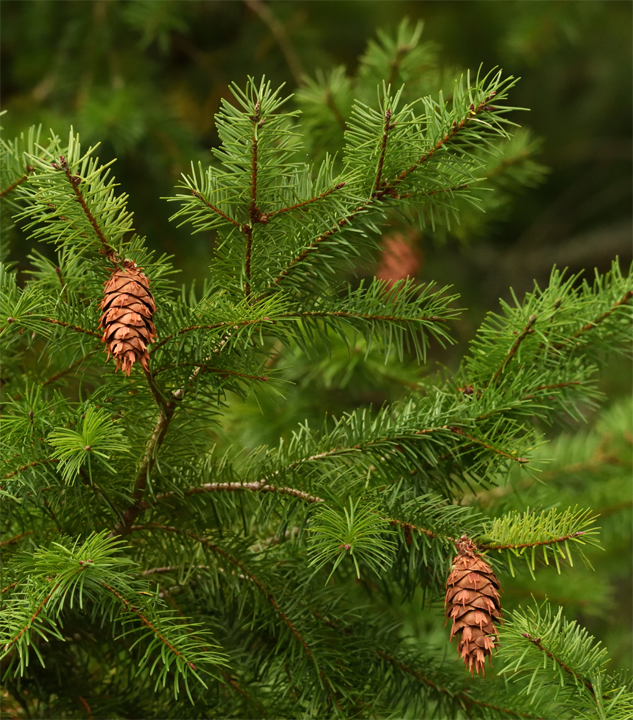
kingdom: Plantae
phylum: Tracheophyta
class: Pinopsida
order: Pinales
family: Pinaceae
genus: Pseudotsuga
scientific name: Pseudotsuga menziesii
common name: Douglas fir
